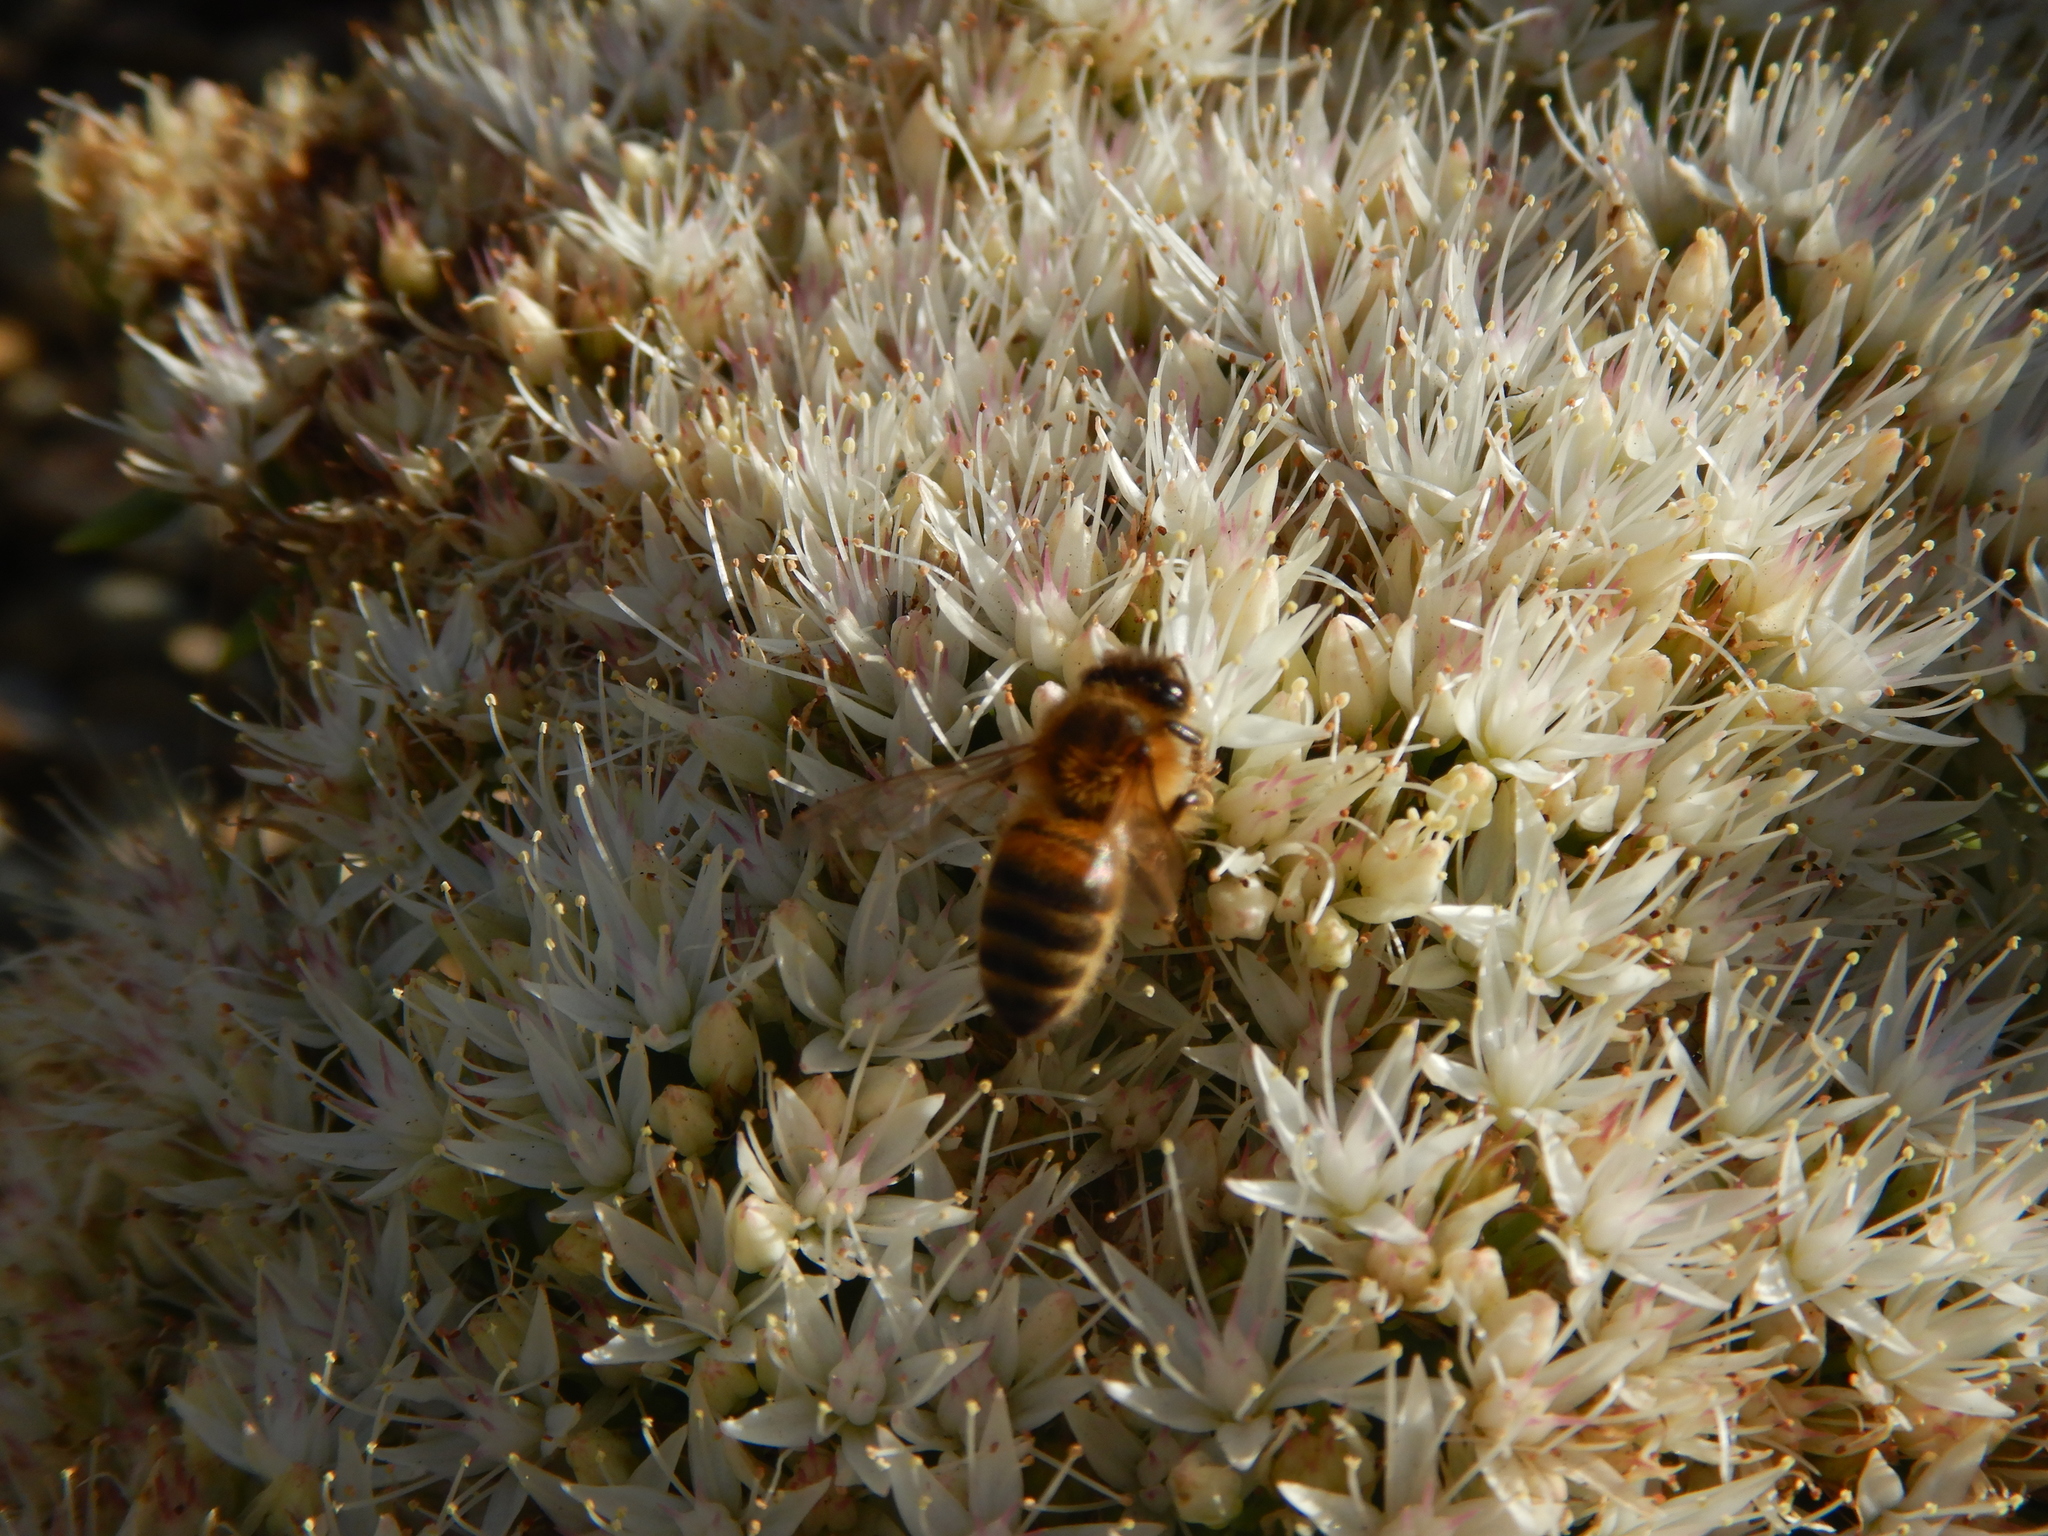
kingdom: Animalia
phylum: Arthropoda
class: Insecta
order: Hymenoptera
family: Apidae
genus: Apis
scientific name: Apis mellifera
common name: Honey bee
